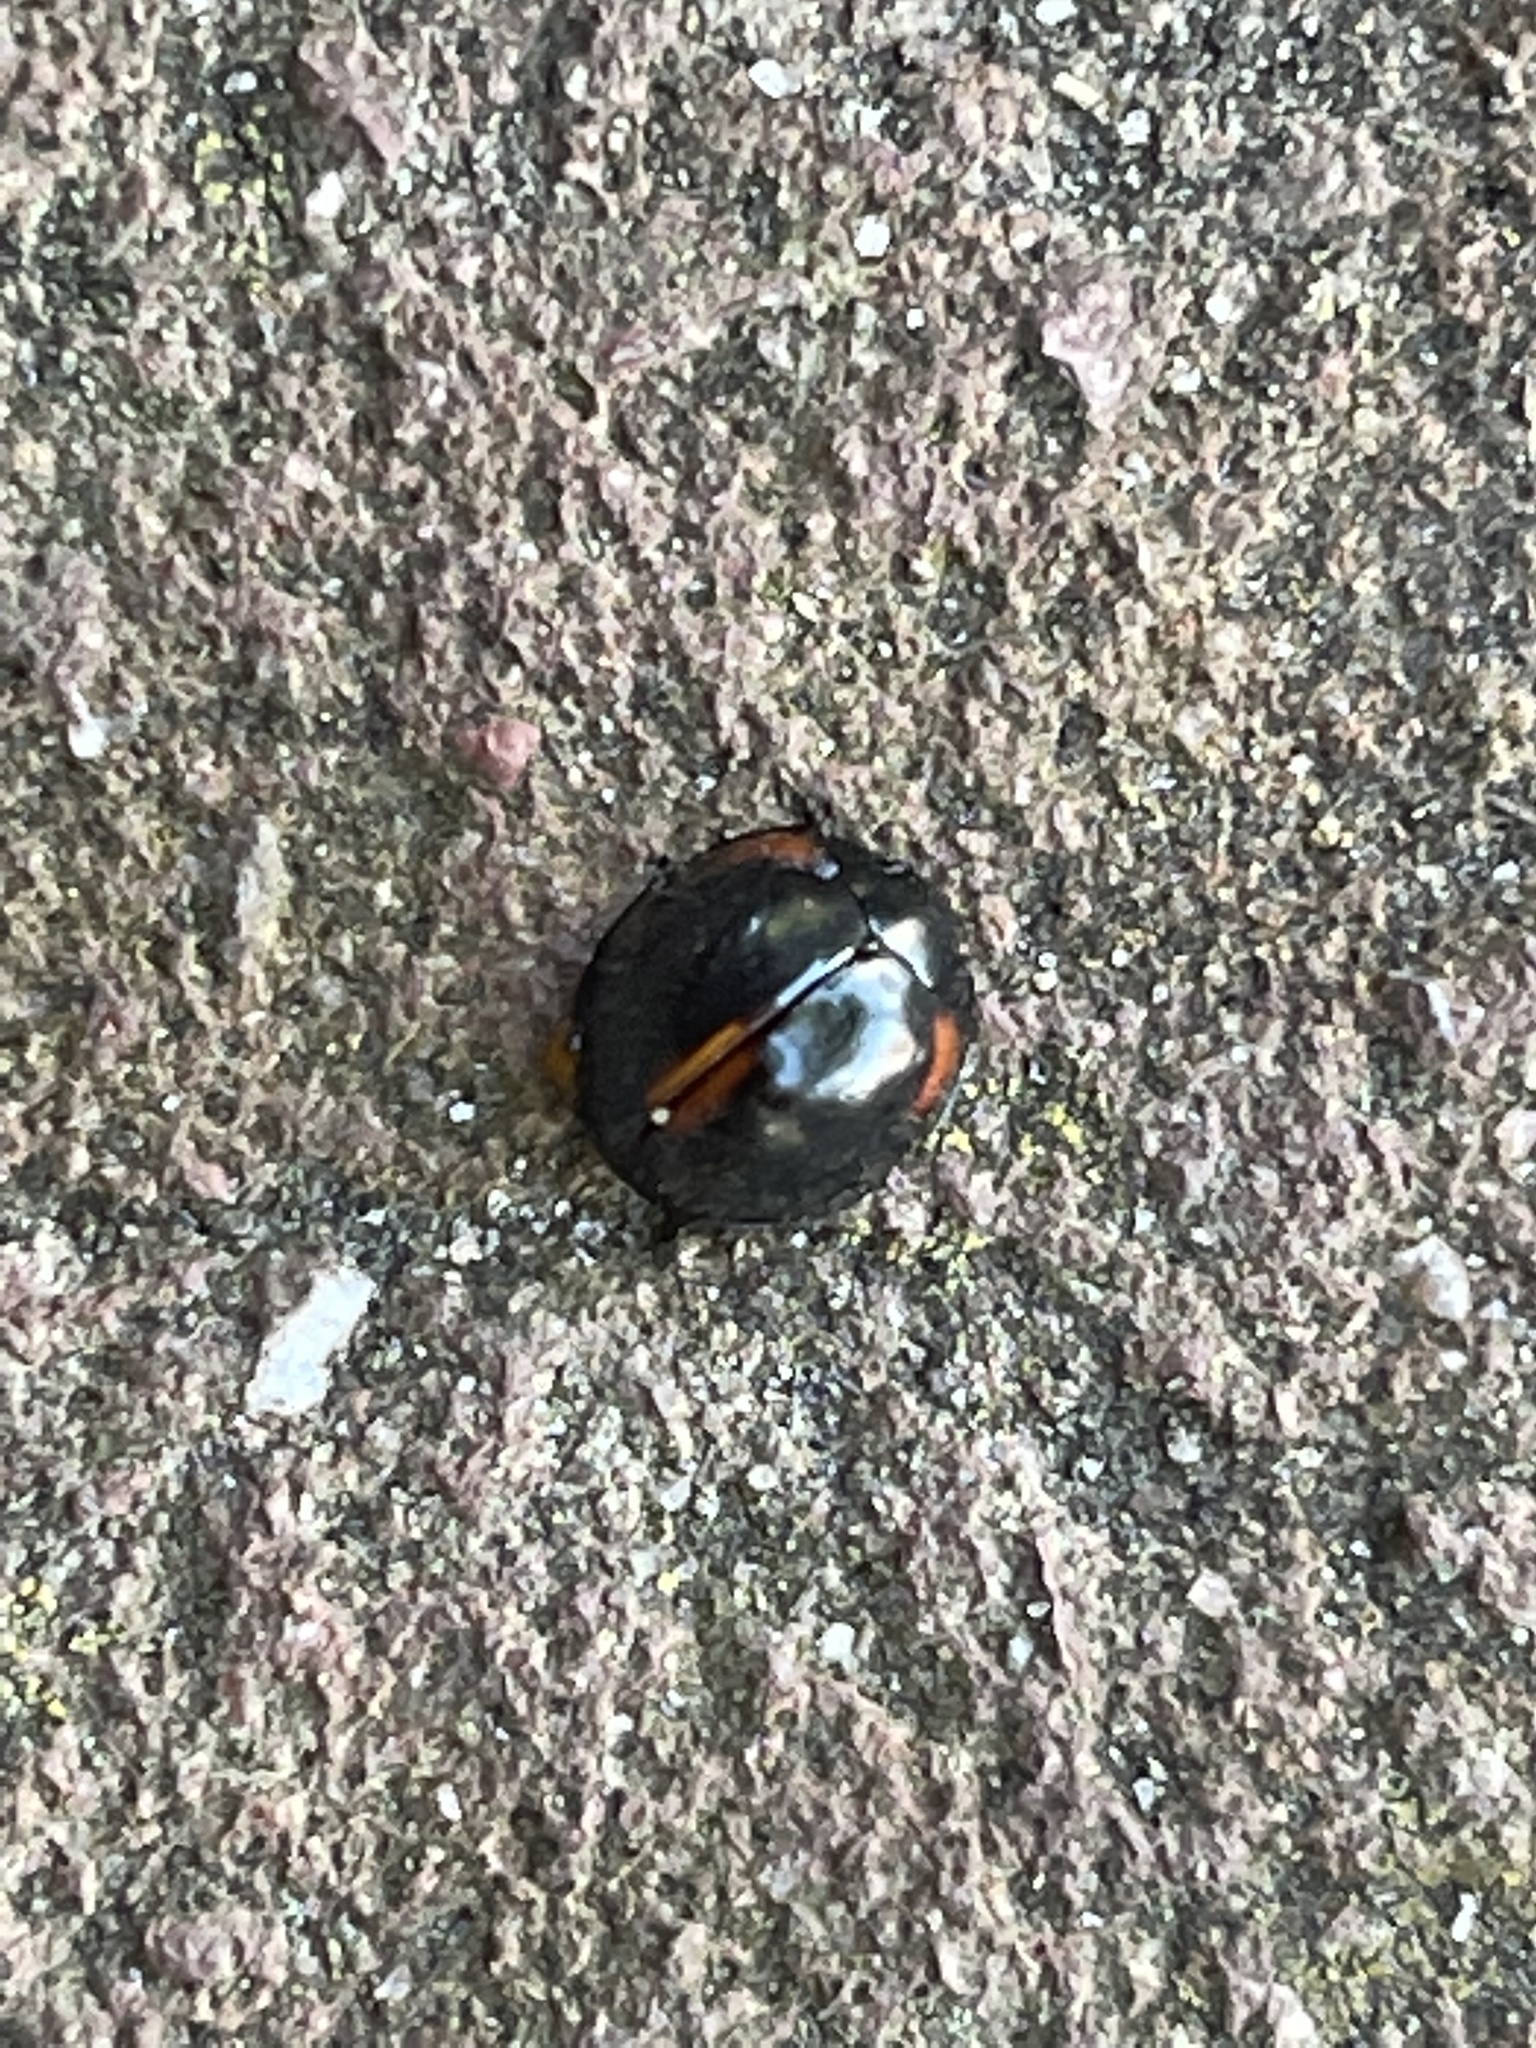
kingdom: Animalia
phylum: Arthropoda
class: Insecta
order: Coleoptera
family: Coccinellidae
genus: Axion
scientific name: Axion tripustulatum
